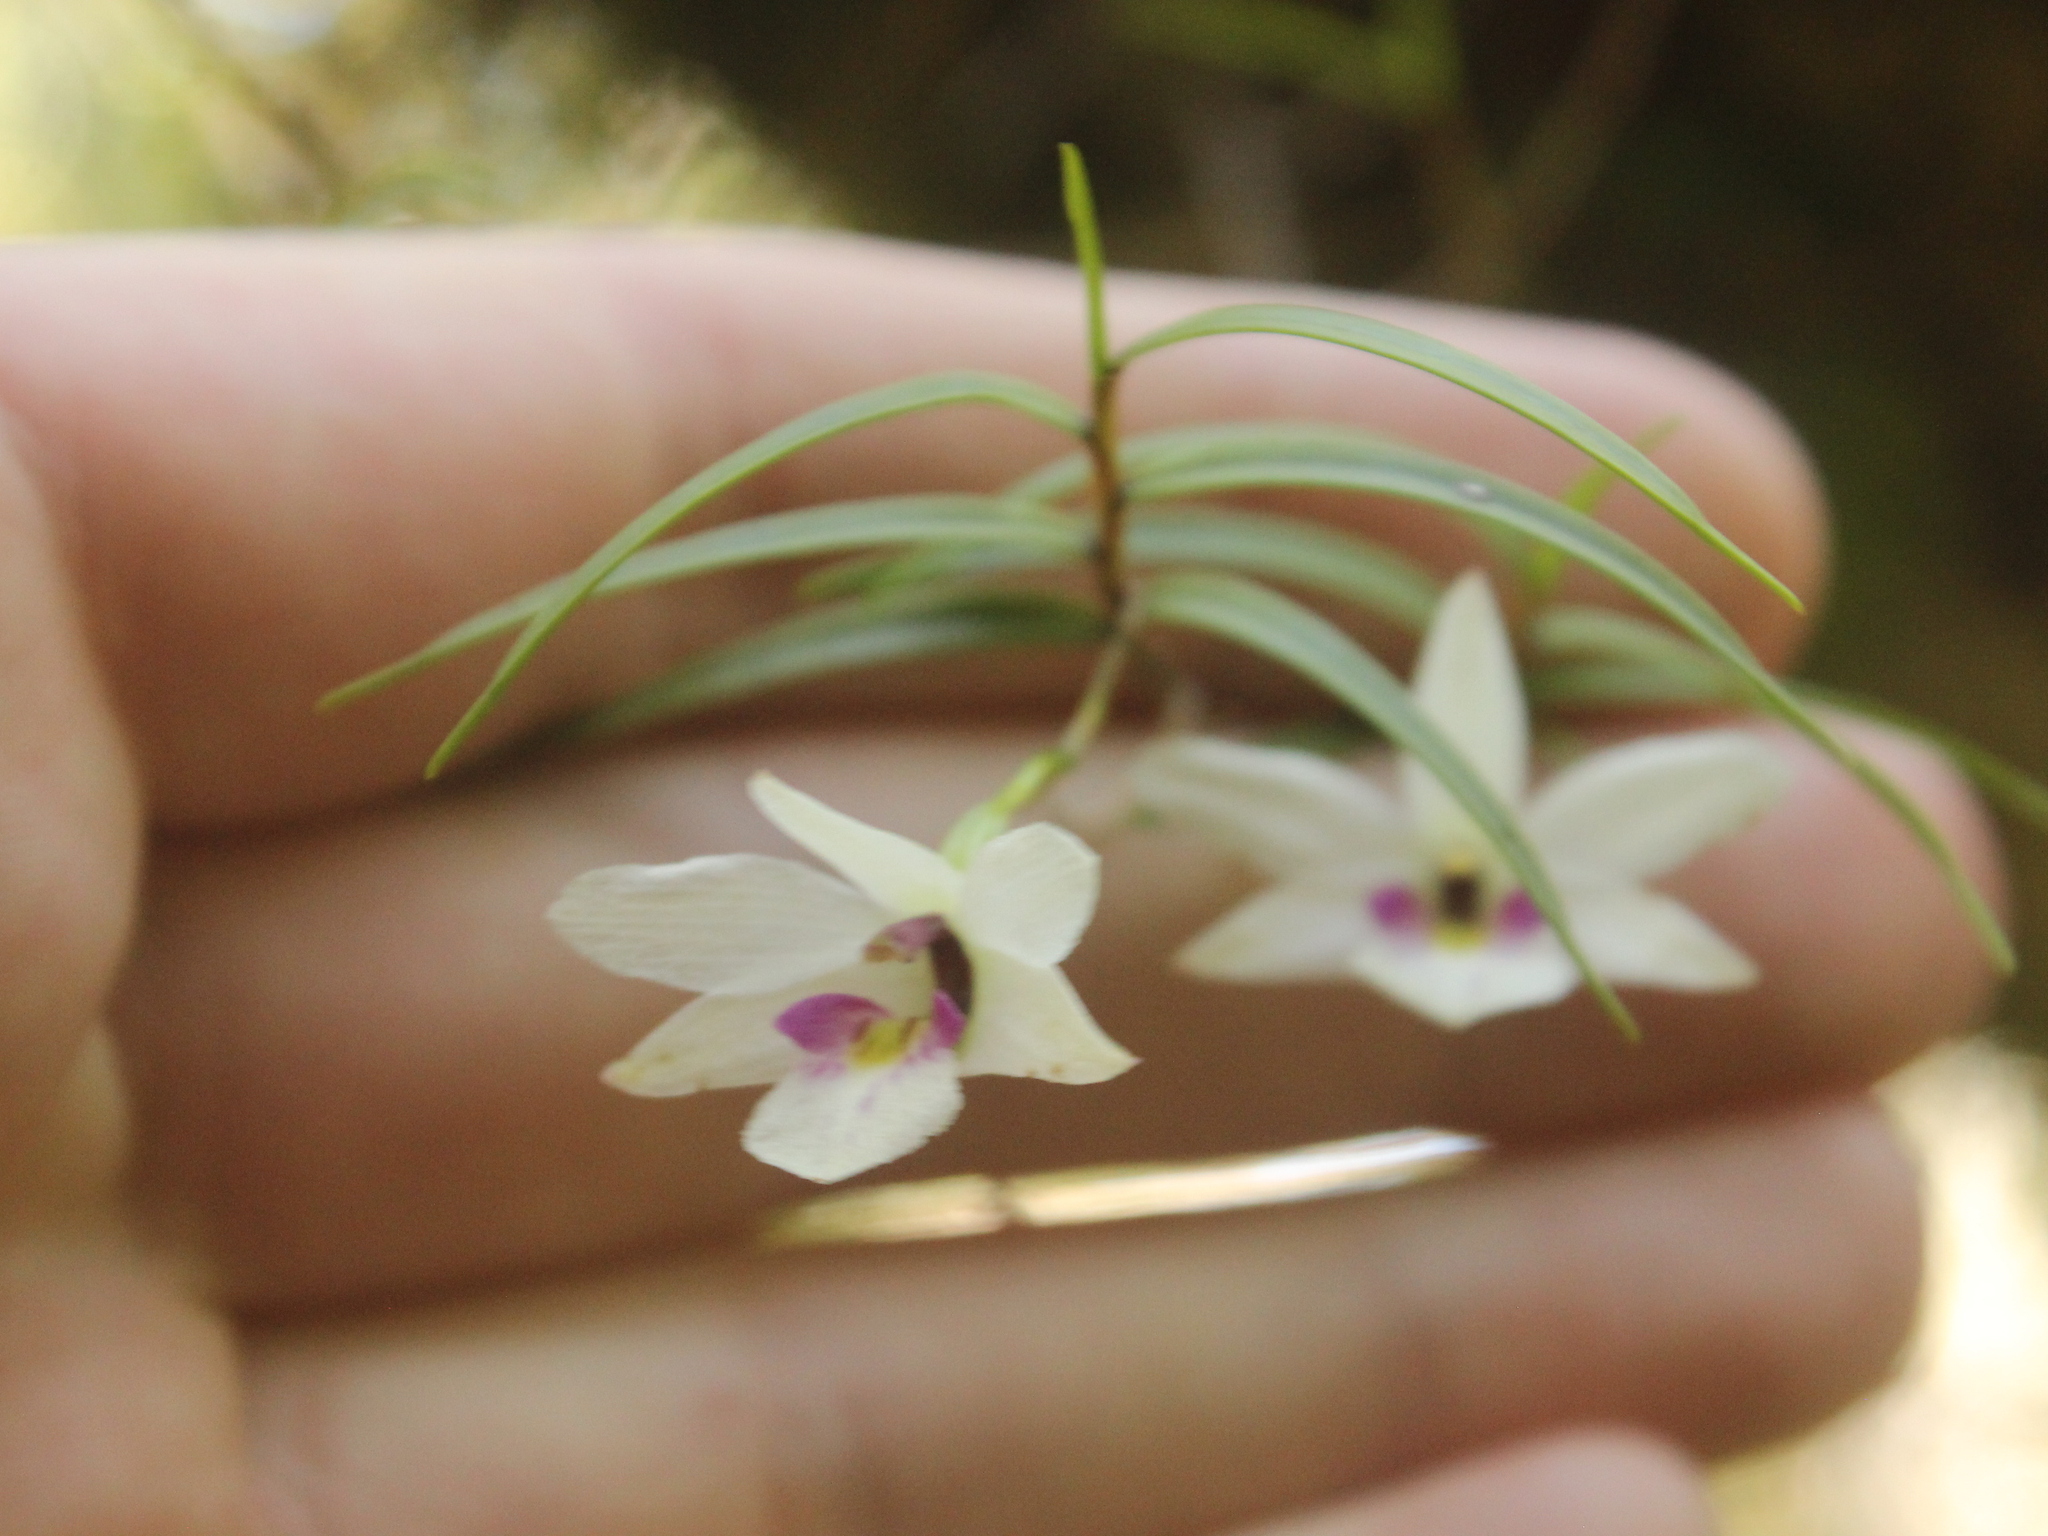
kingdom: Plantae
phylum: Tracheophyta
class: Liliopsida
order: Asparagales
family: Orchidaceae
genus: Dendrobium
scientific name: Dendrobium cunninghamii
